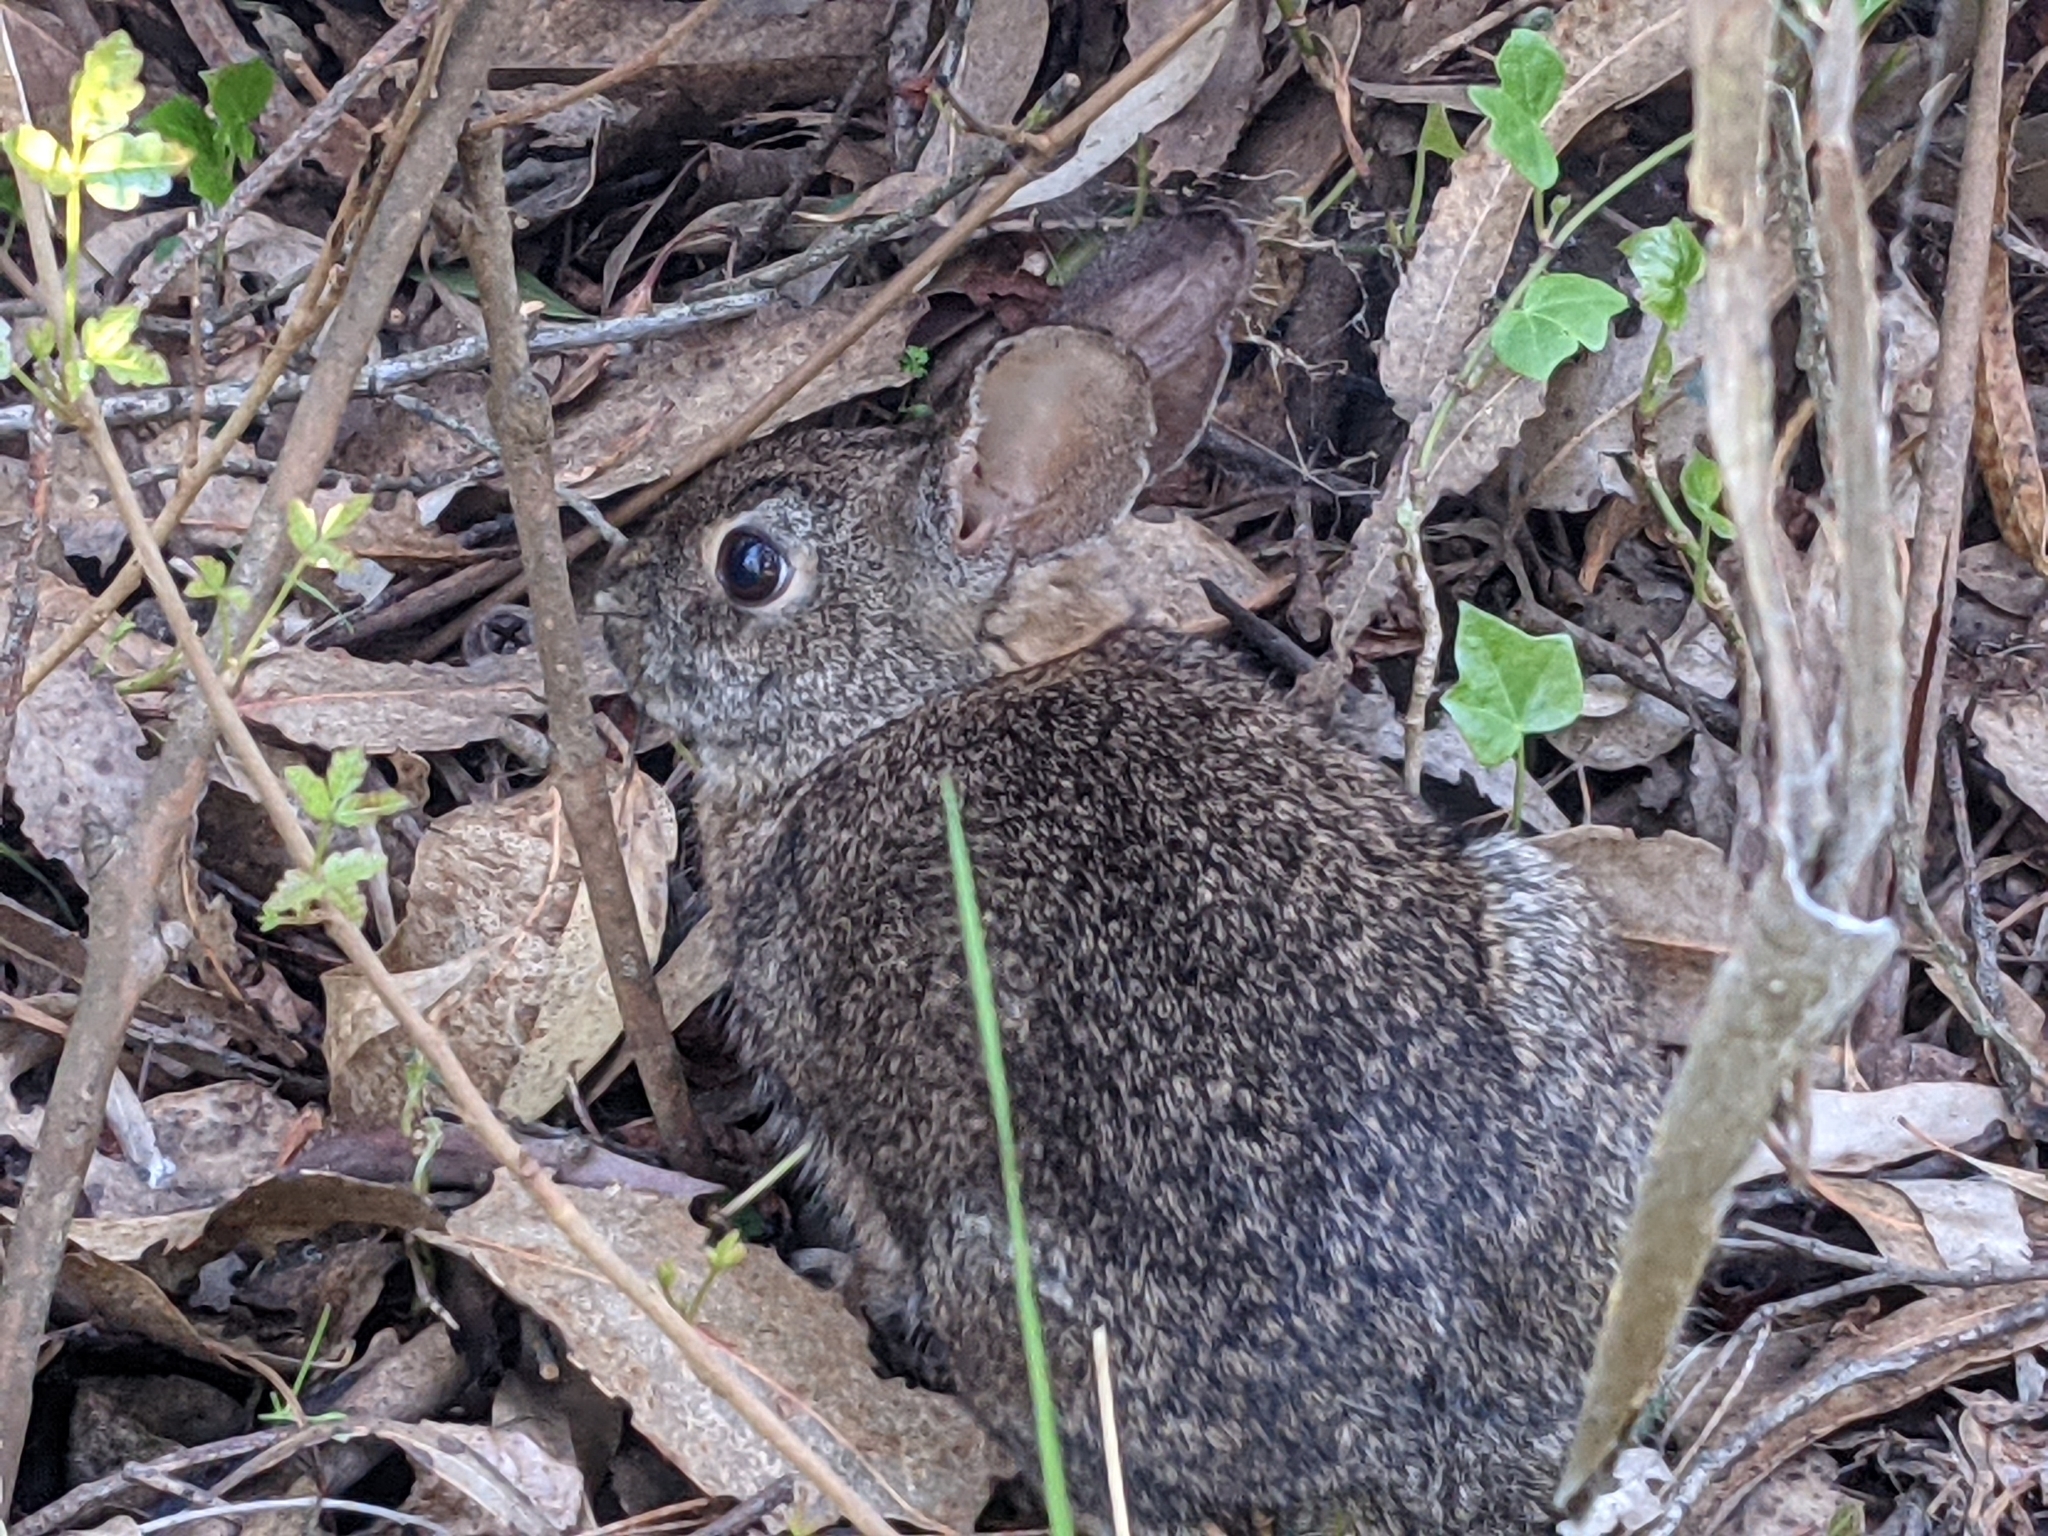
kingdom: Animalia
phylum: Chordata
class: Mammalia
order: Lagomorpha
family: Leporidae
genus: Sylvilagus
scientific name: Sylvilagus bachmani
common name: Brush rabbit
